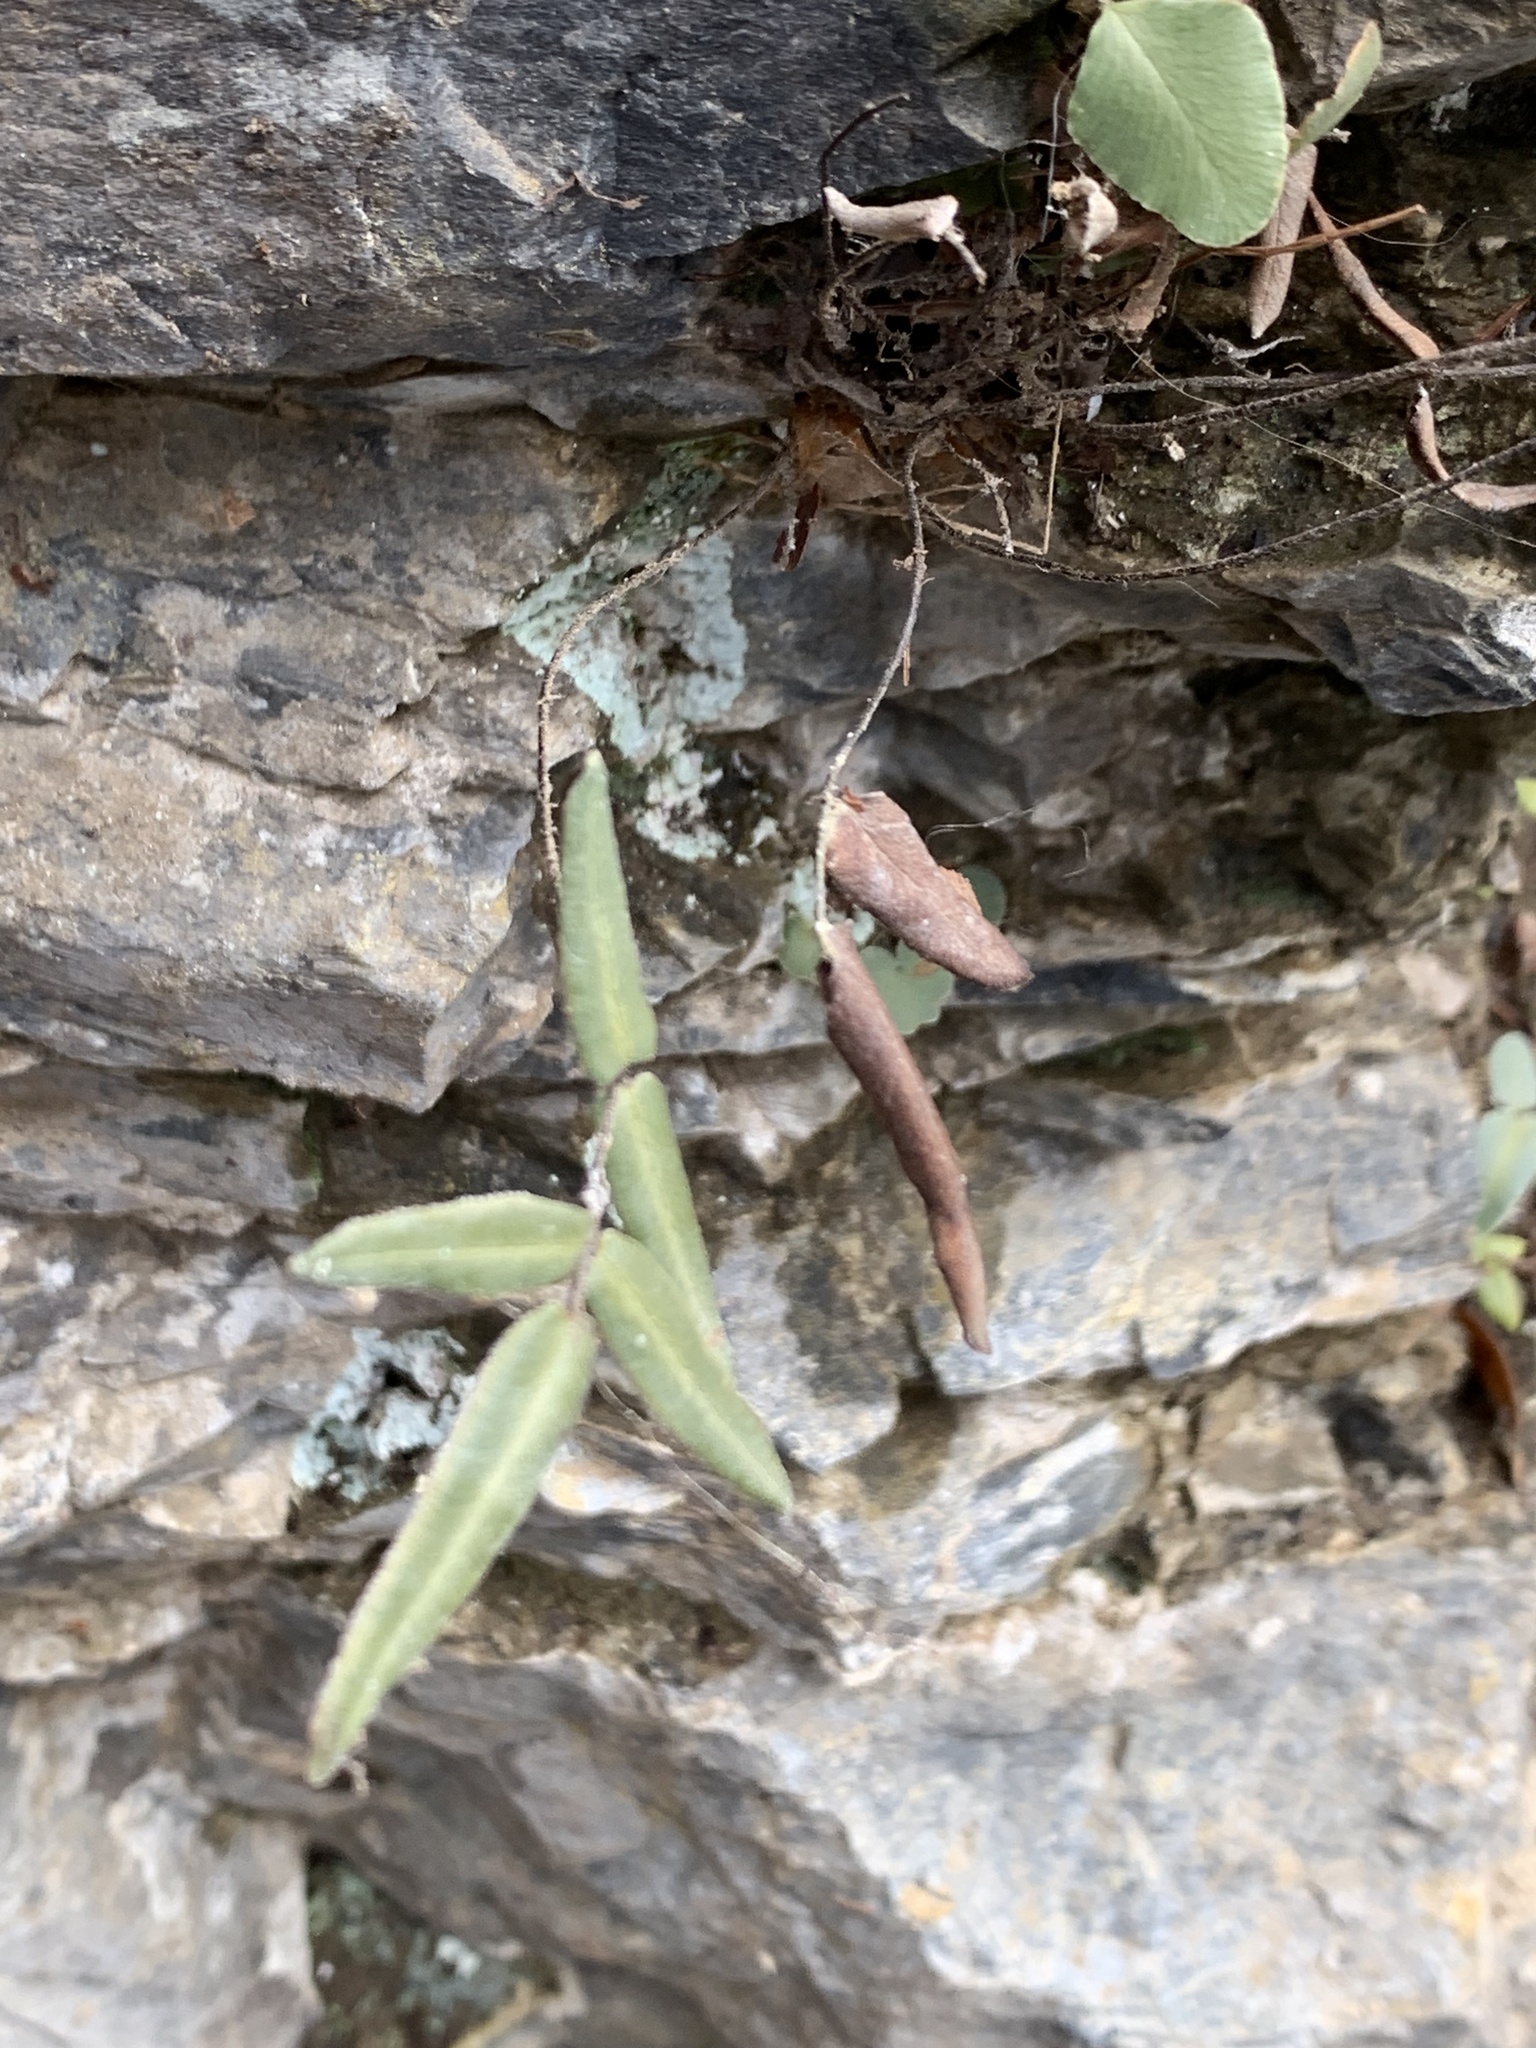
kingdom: Plantae
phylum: Tracheophyta
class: Polypodiopsida
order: Polypodiales
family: Pteridaceae
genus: Pellaea
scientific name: Pellaea atropurpurea
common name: Hairy cliffbrake
